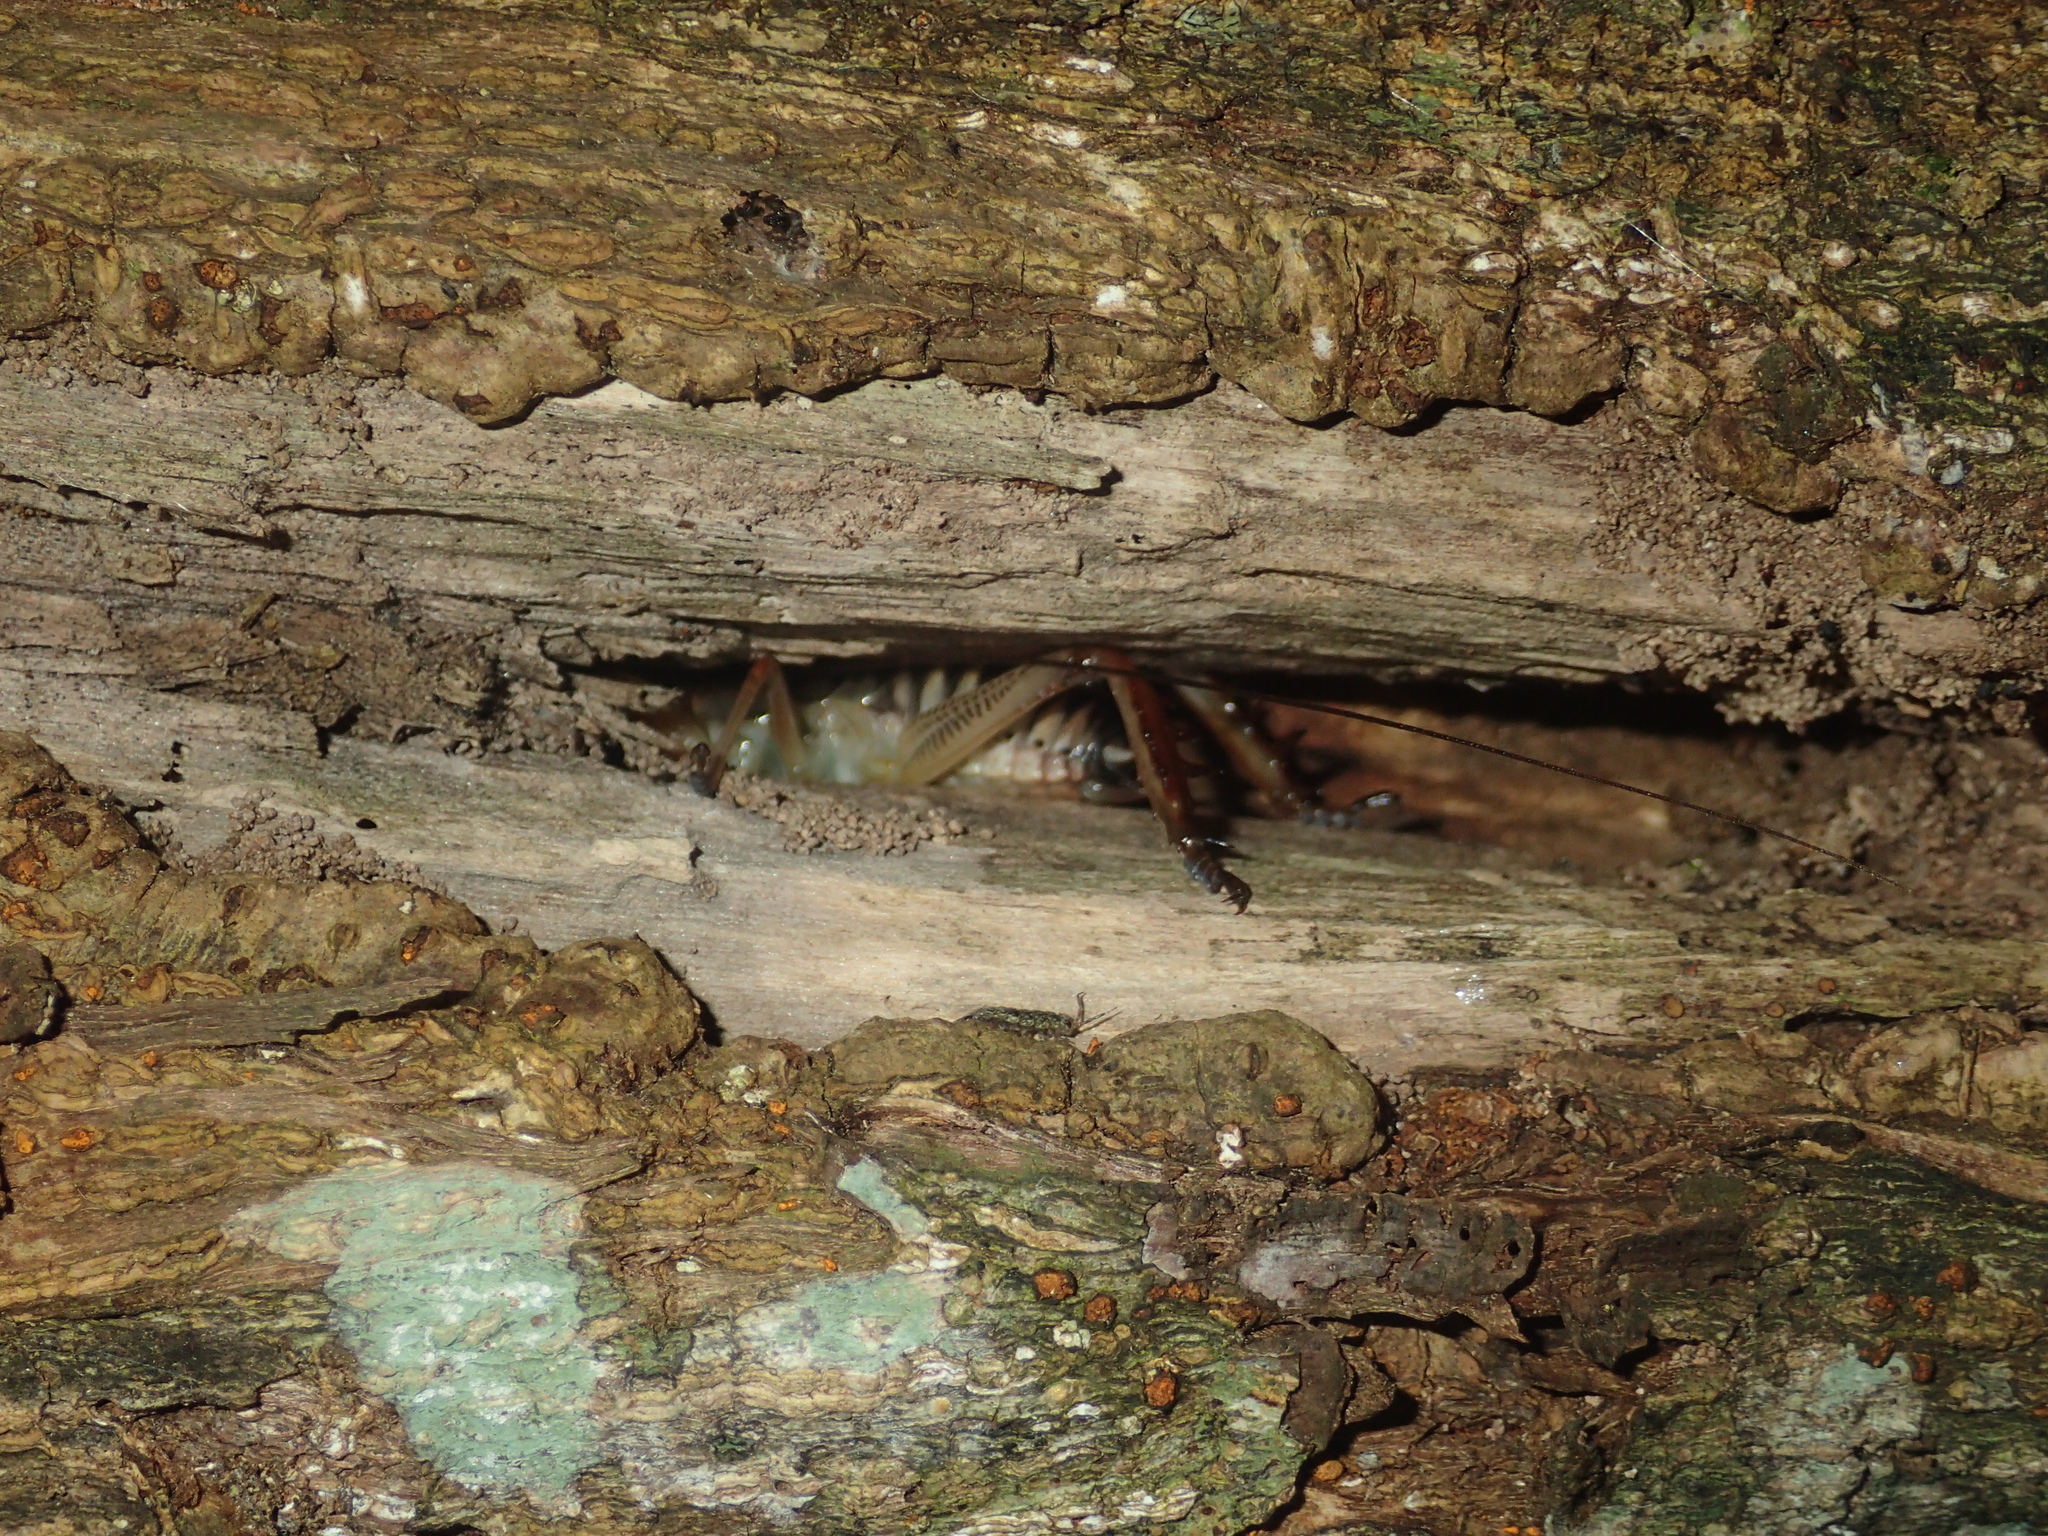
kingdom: Animalia
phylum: Arthropoda
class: Insecta
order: Orthoptera
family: Anostostomatidae
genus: Hemideina
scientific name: Hemideina crassidens
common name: Wellington tree weta
